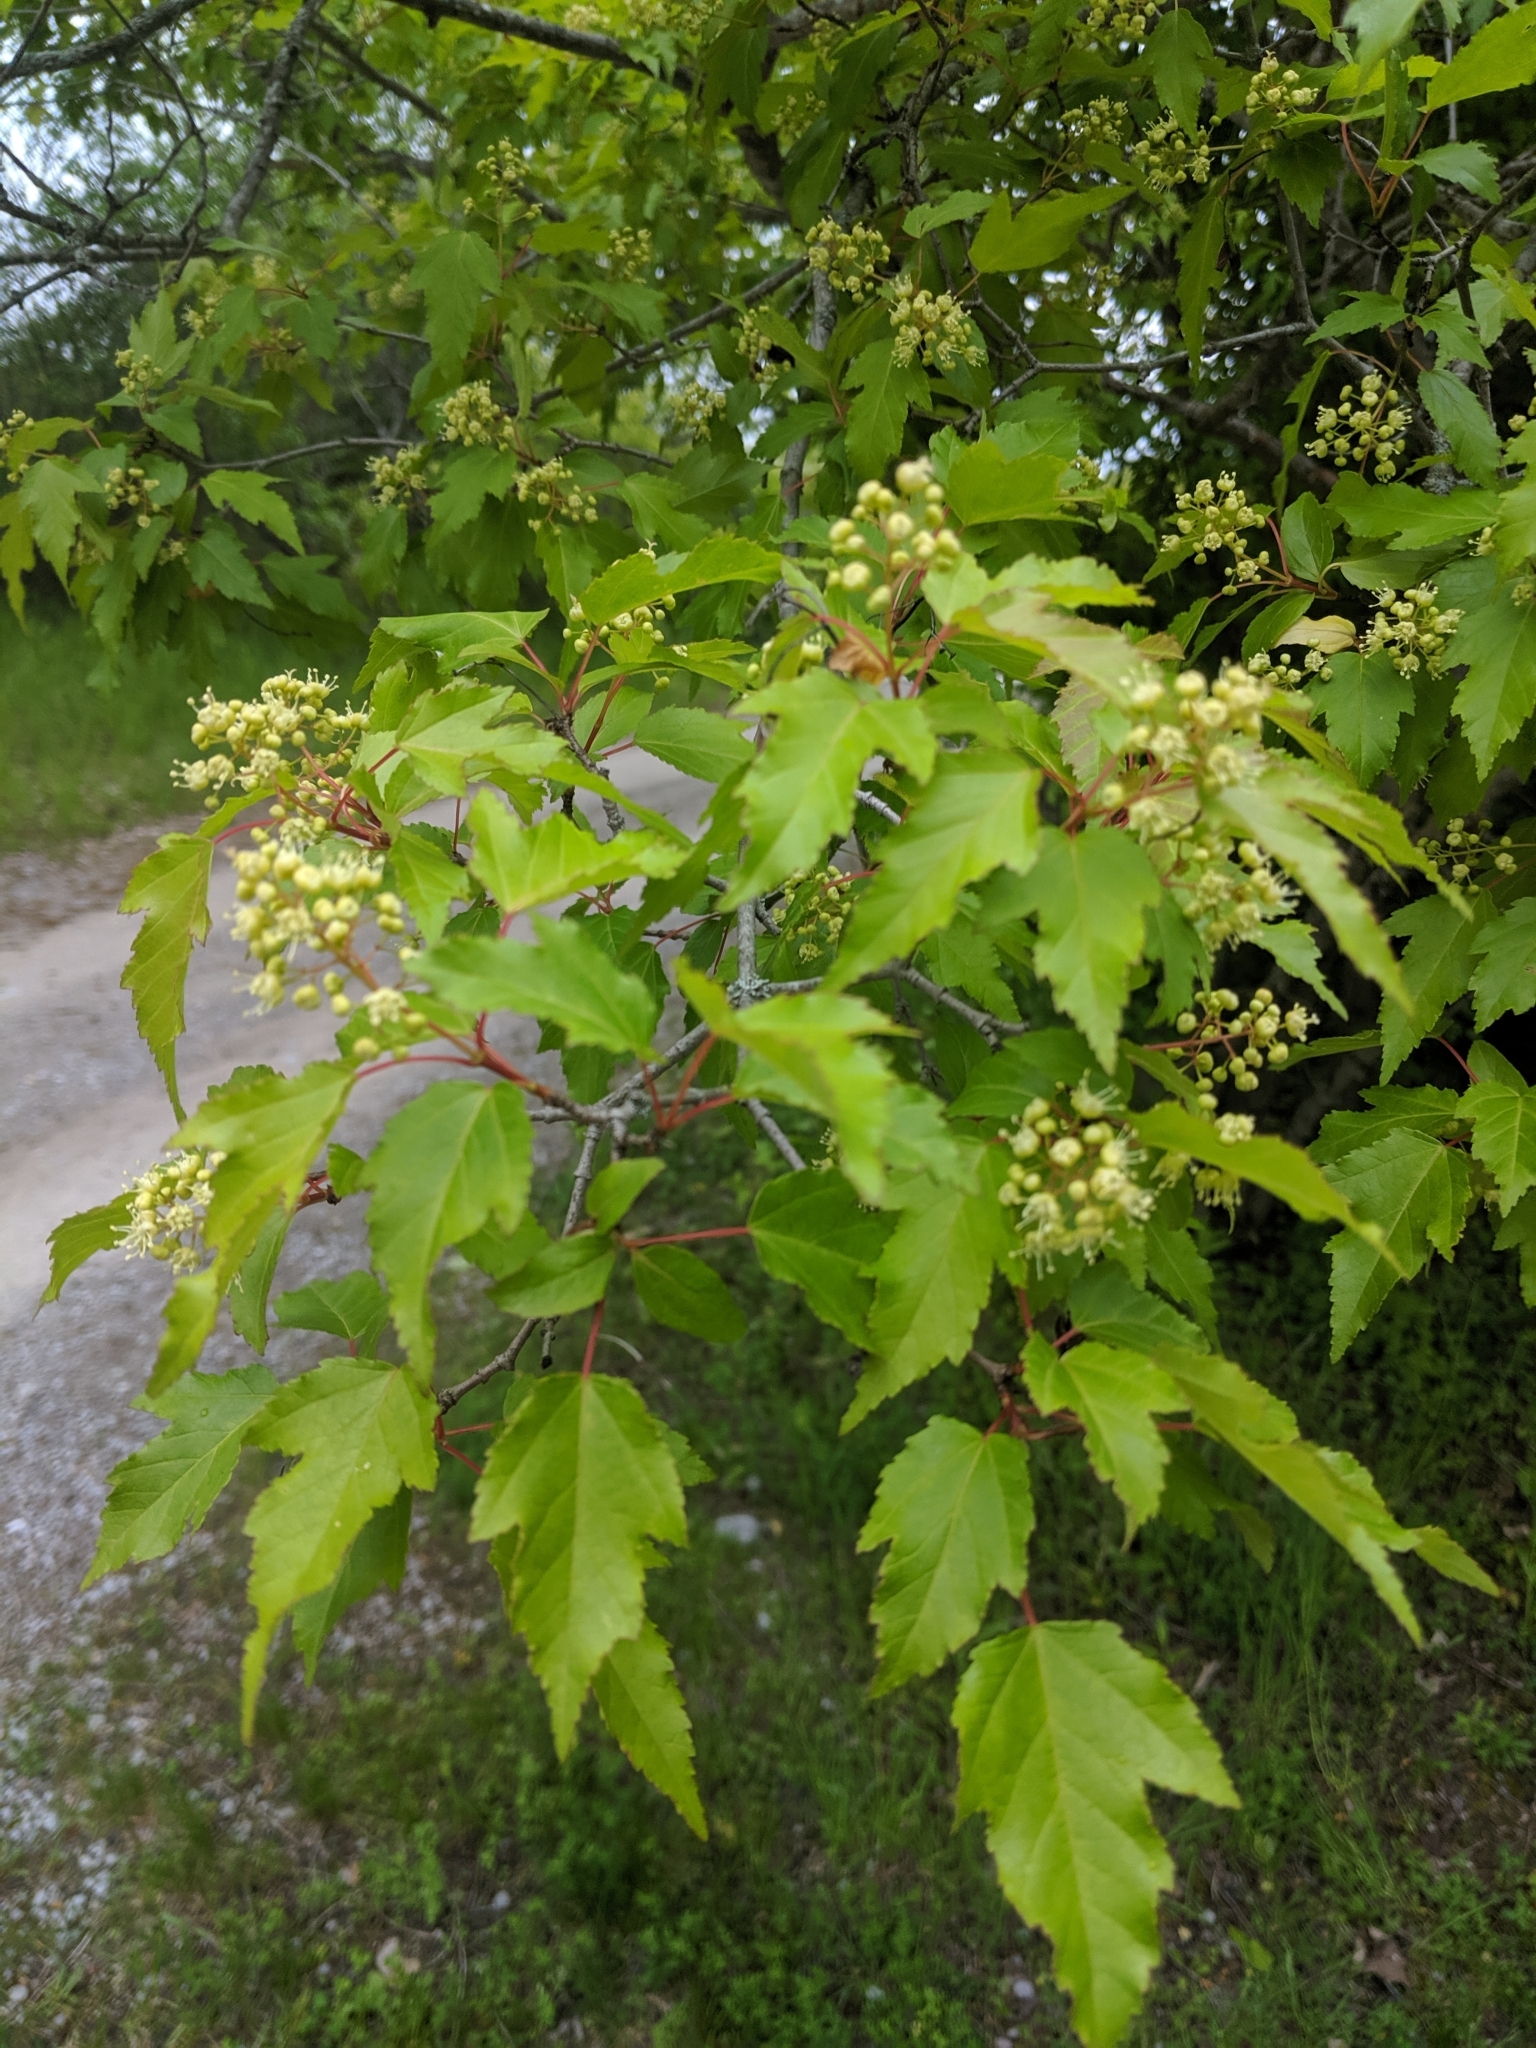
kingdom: Plantae
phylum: Tracheophyta
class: Magnoliopsida
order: Sapindales
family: Sapindaceae
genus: Acer
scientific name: Acer tataricum
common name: Tartar maple
